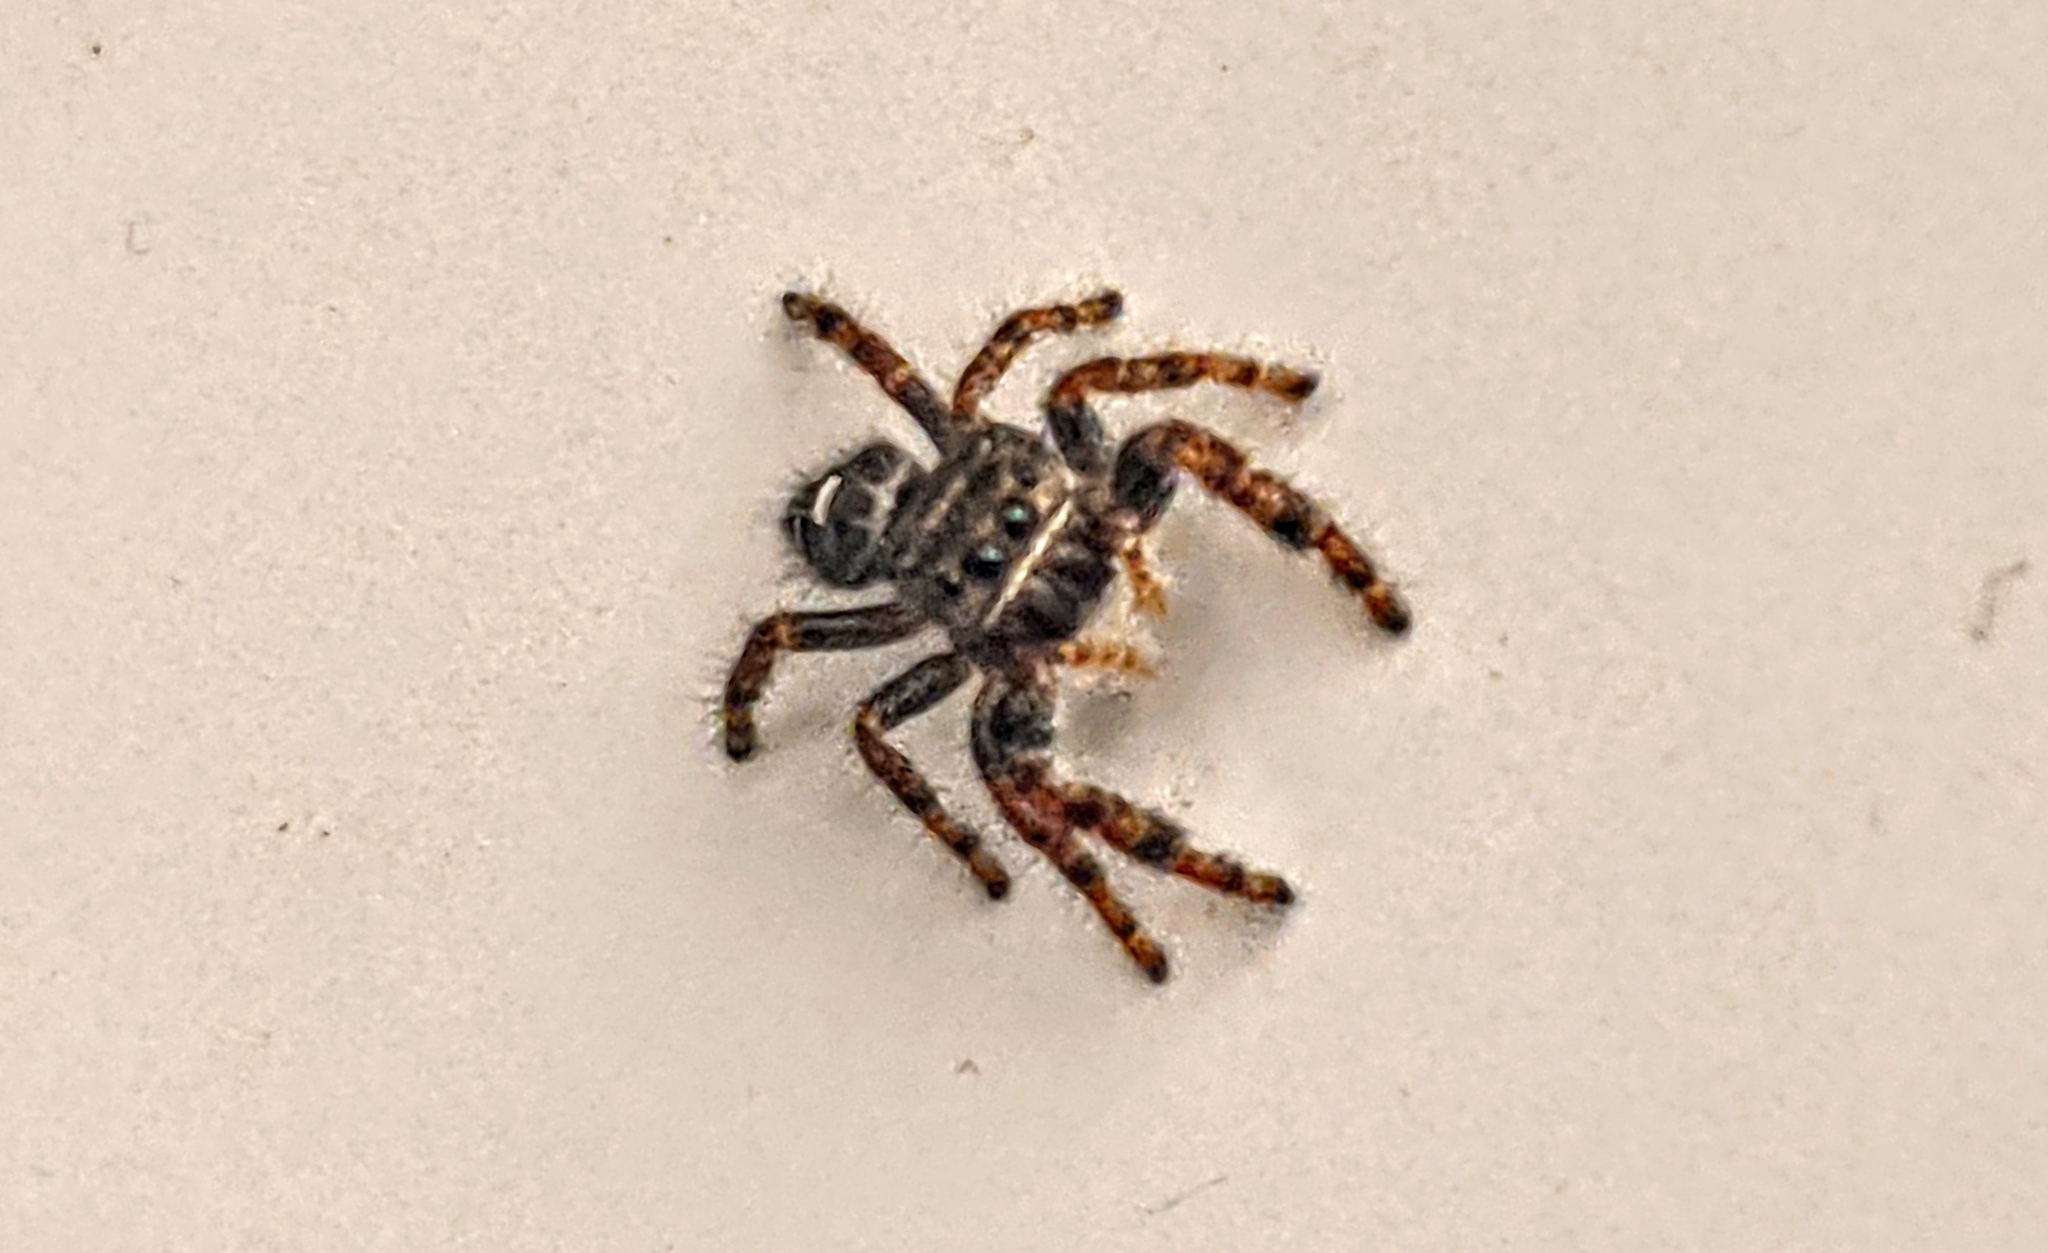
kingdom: Animalia
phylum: Arthropoda
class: Arachnida
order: Araneae
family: Salticidae
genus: Phidippus
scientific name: Phidippus audax
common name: Bold jumper
